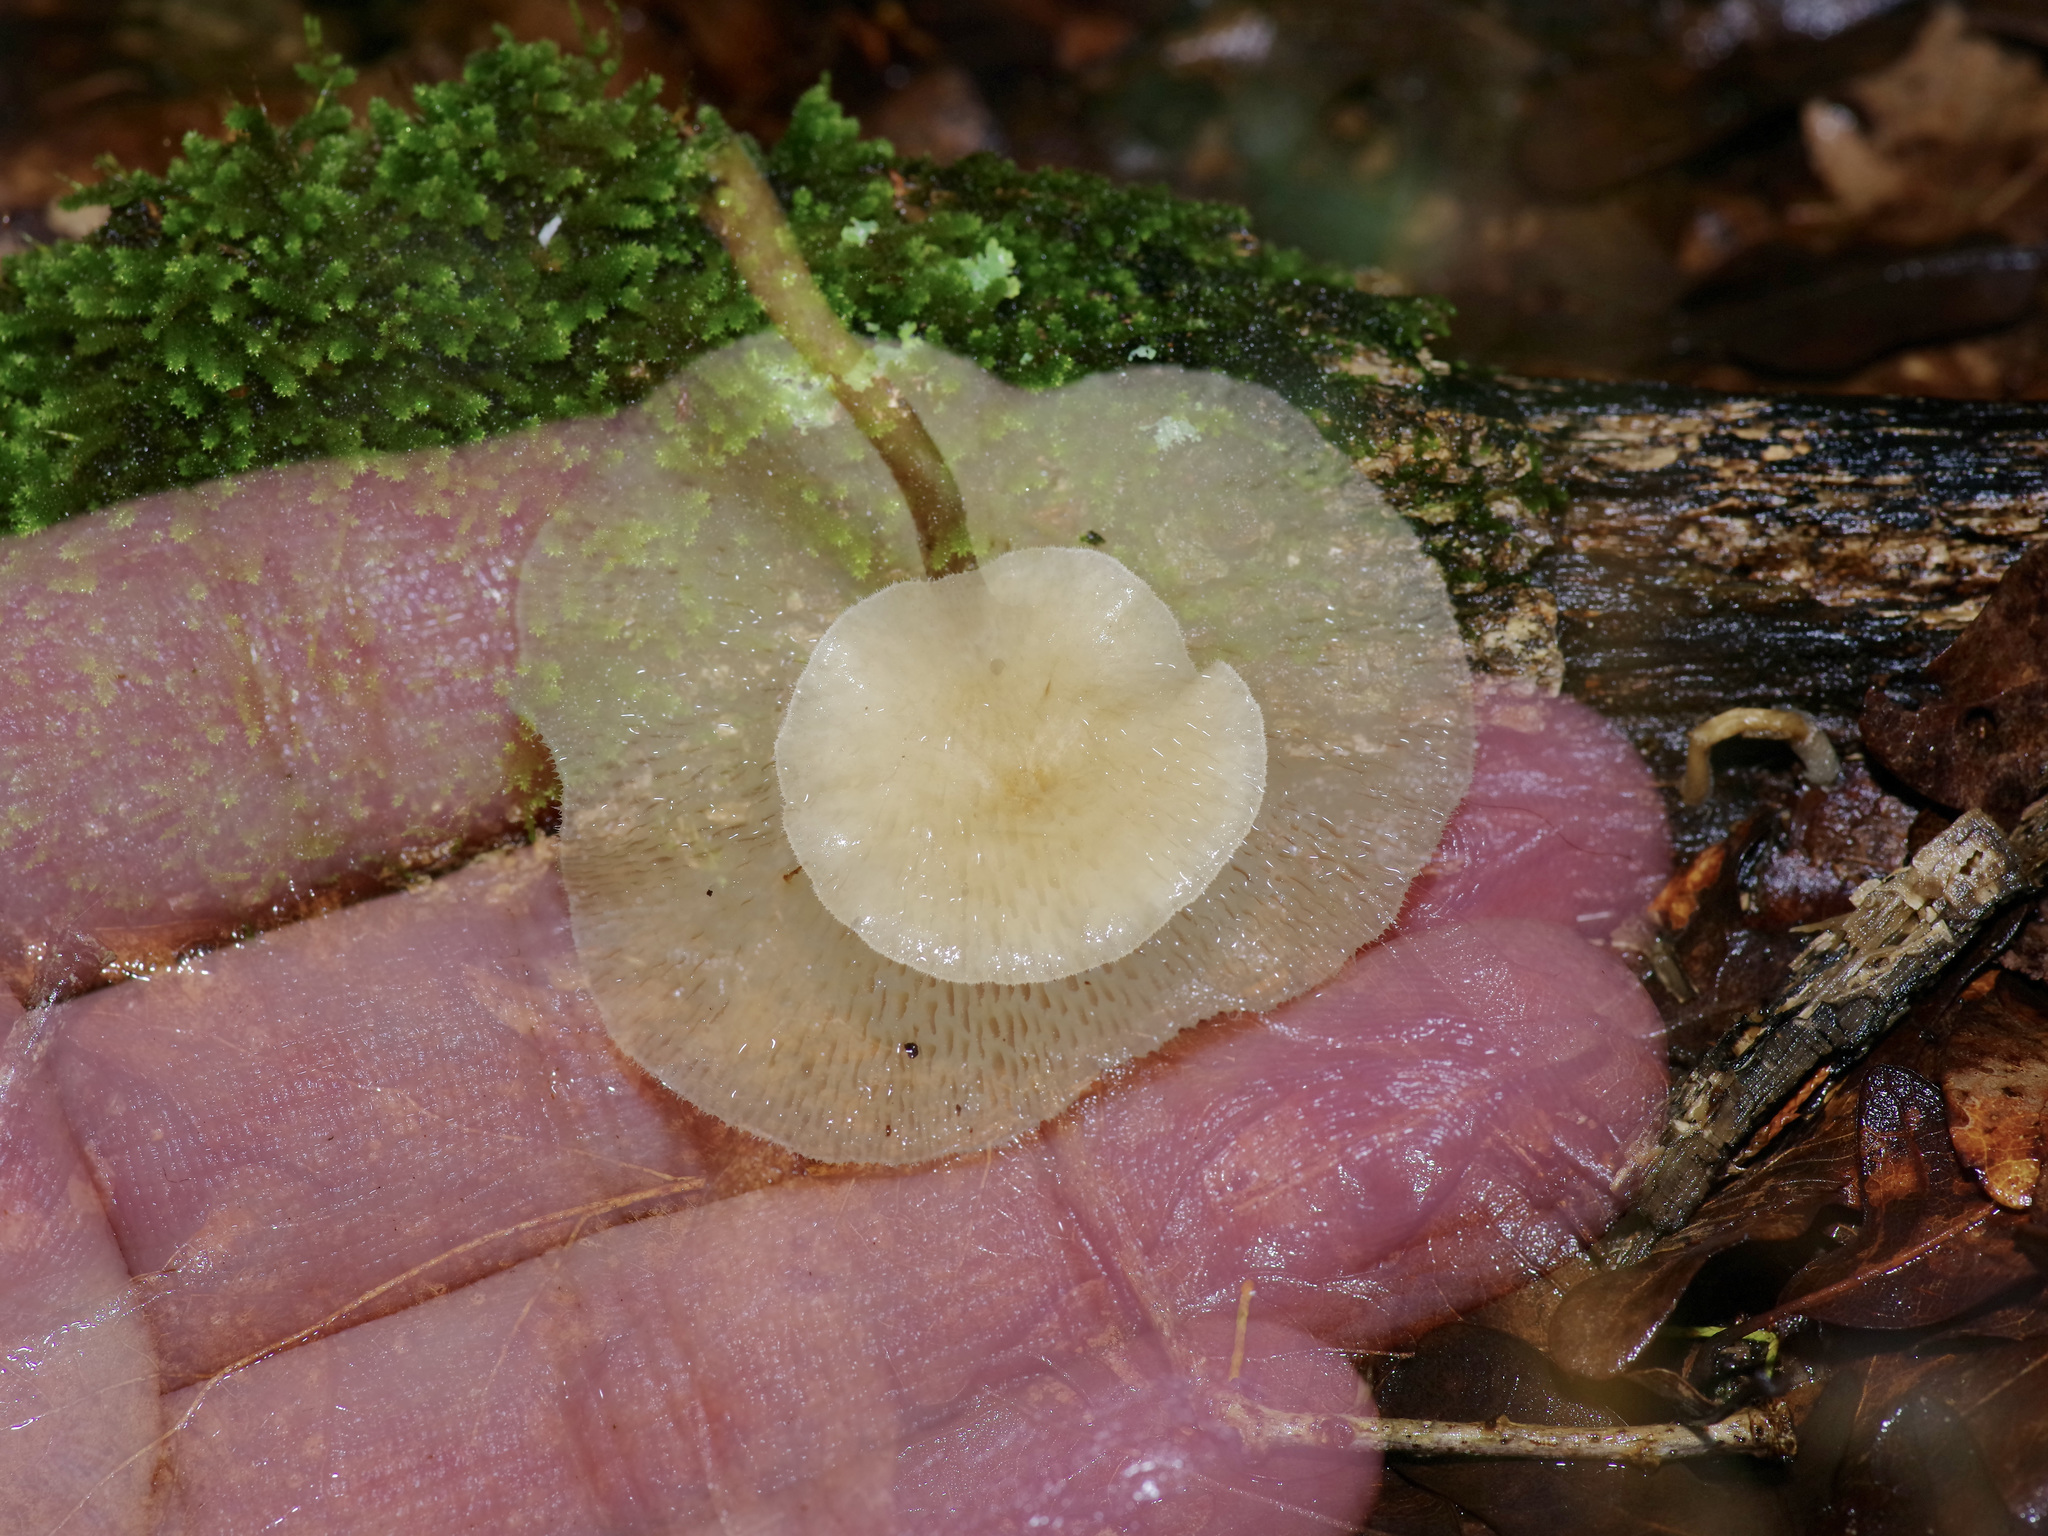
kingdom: Fungi
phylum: Basidiomycota
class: Agaricomycetes
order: Polyporales
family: Polyporaceae
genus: Lentinus
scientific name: Lentinus arcularius
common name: Spring polypore
